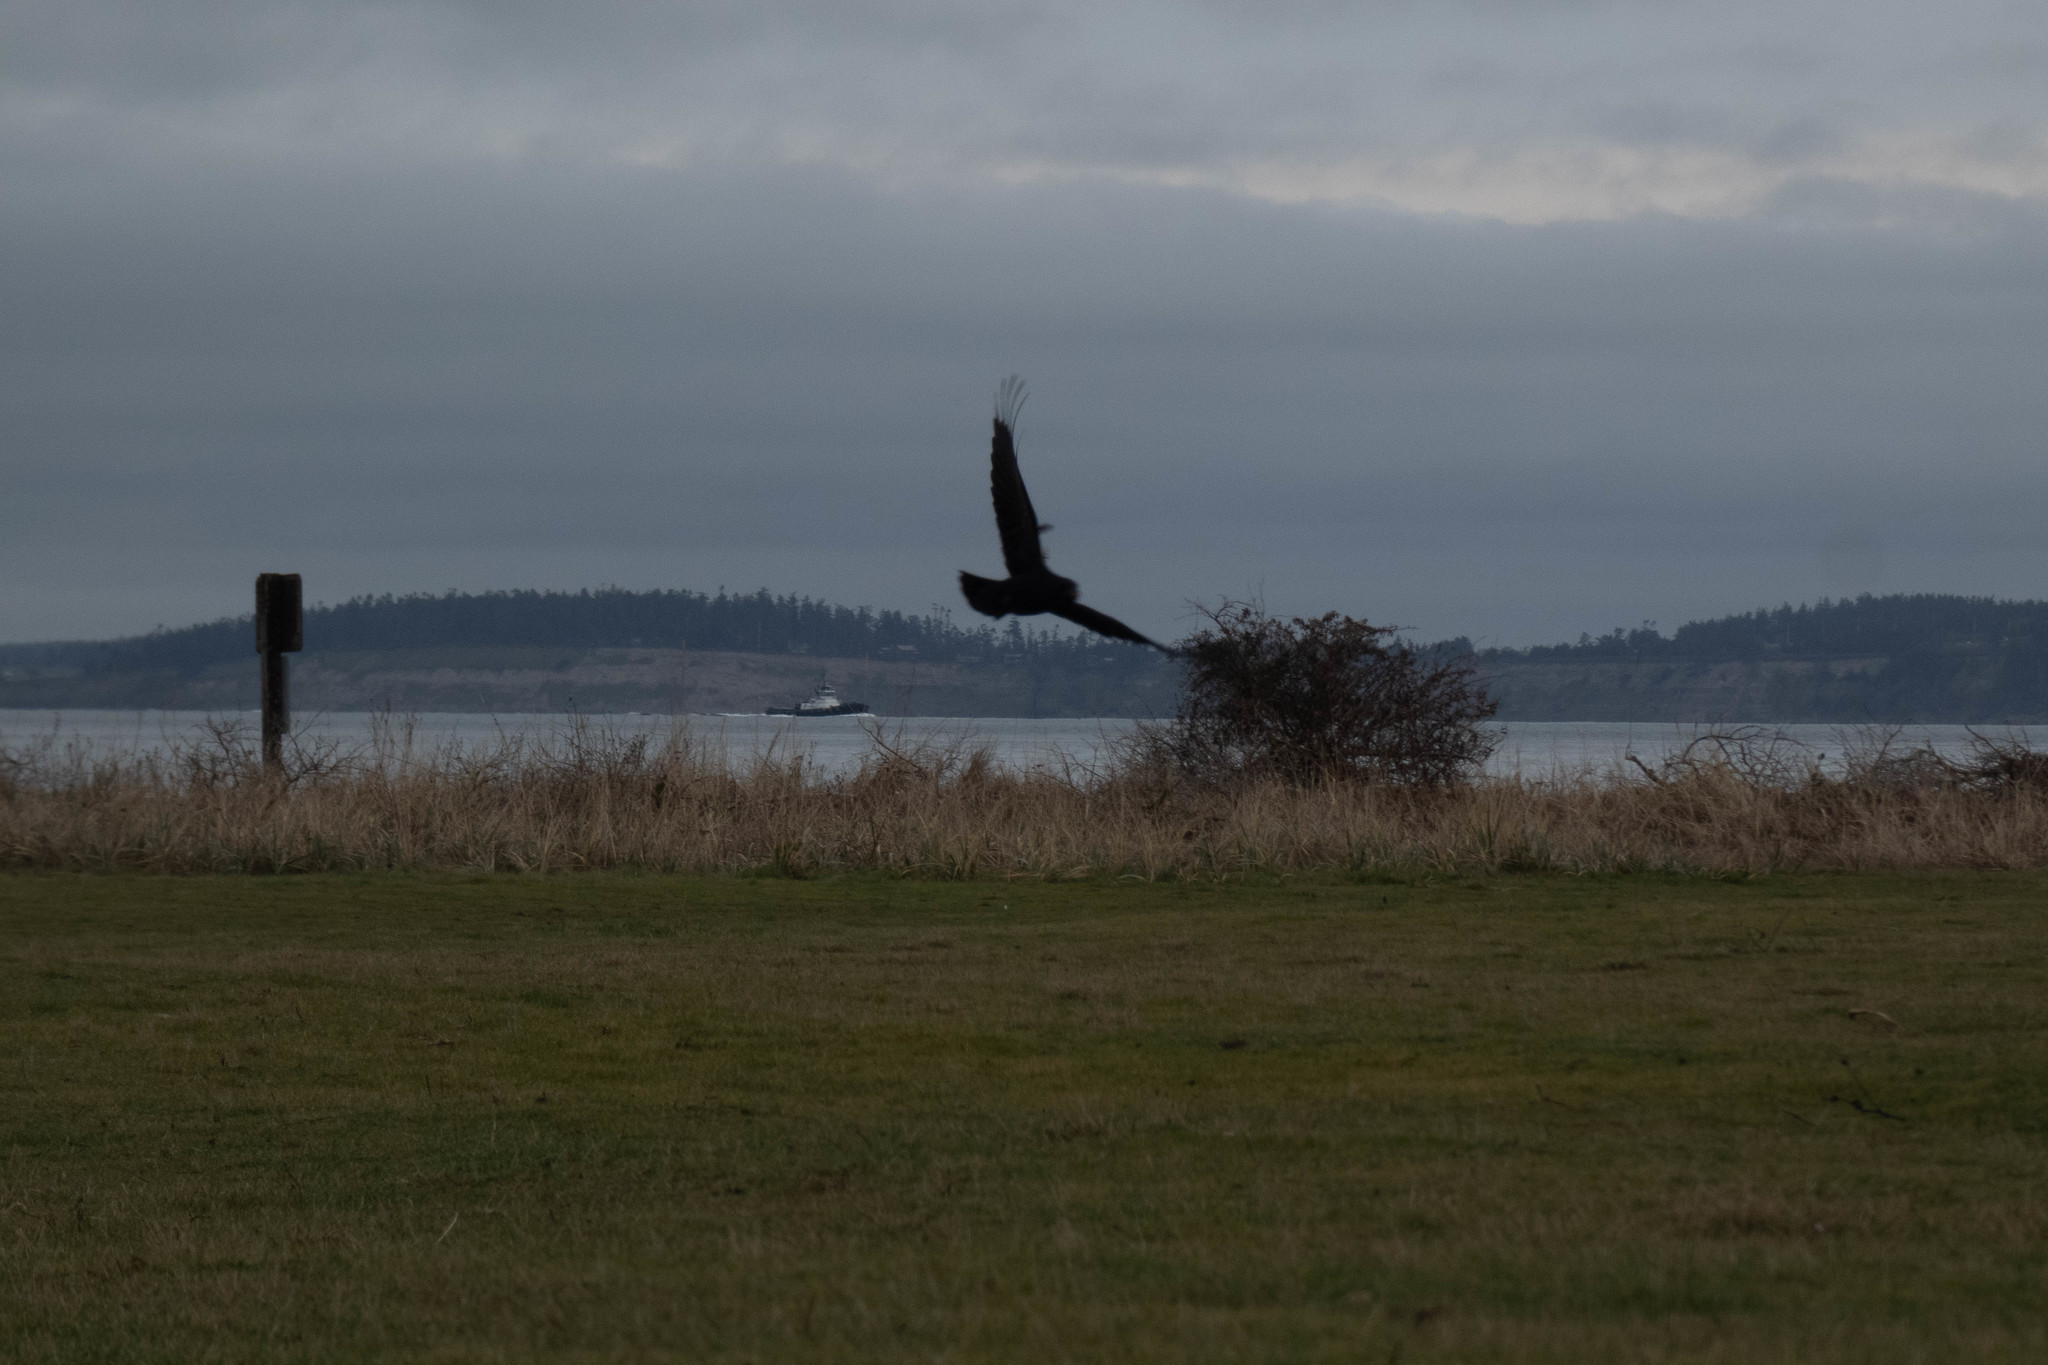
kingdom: Animalia
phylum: Chordata
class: Aves
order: Passeriformes
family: Corvidae
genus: Corvus
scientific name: Corvus brachyrhynchos
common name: American crow
